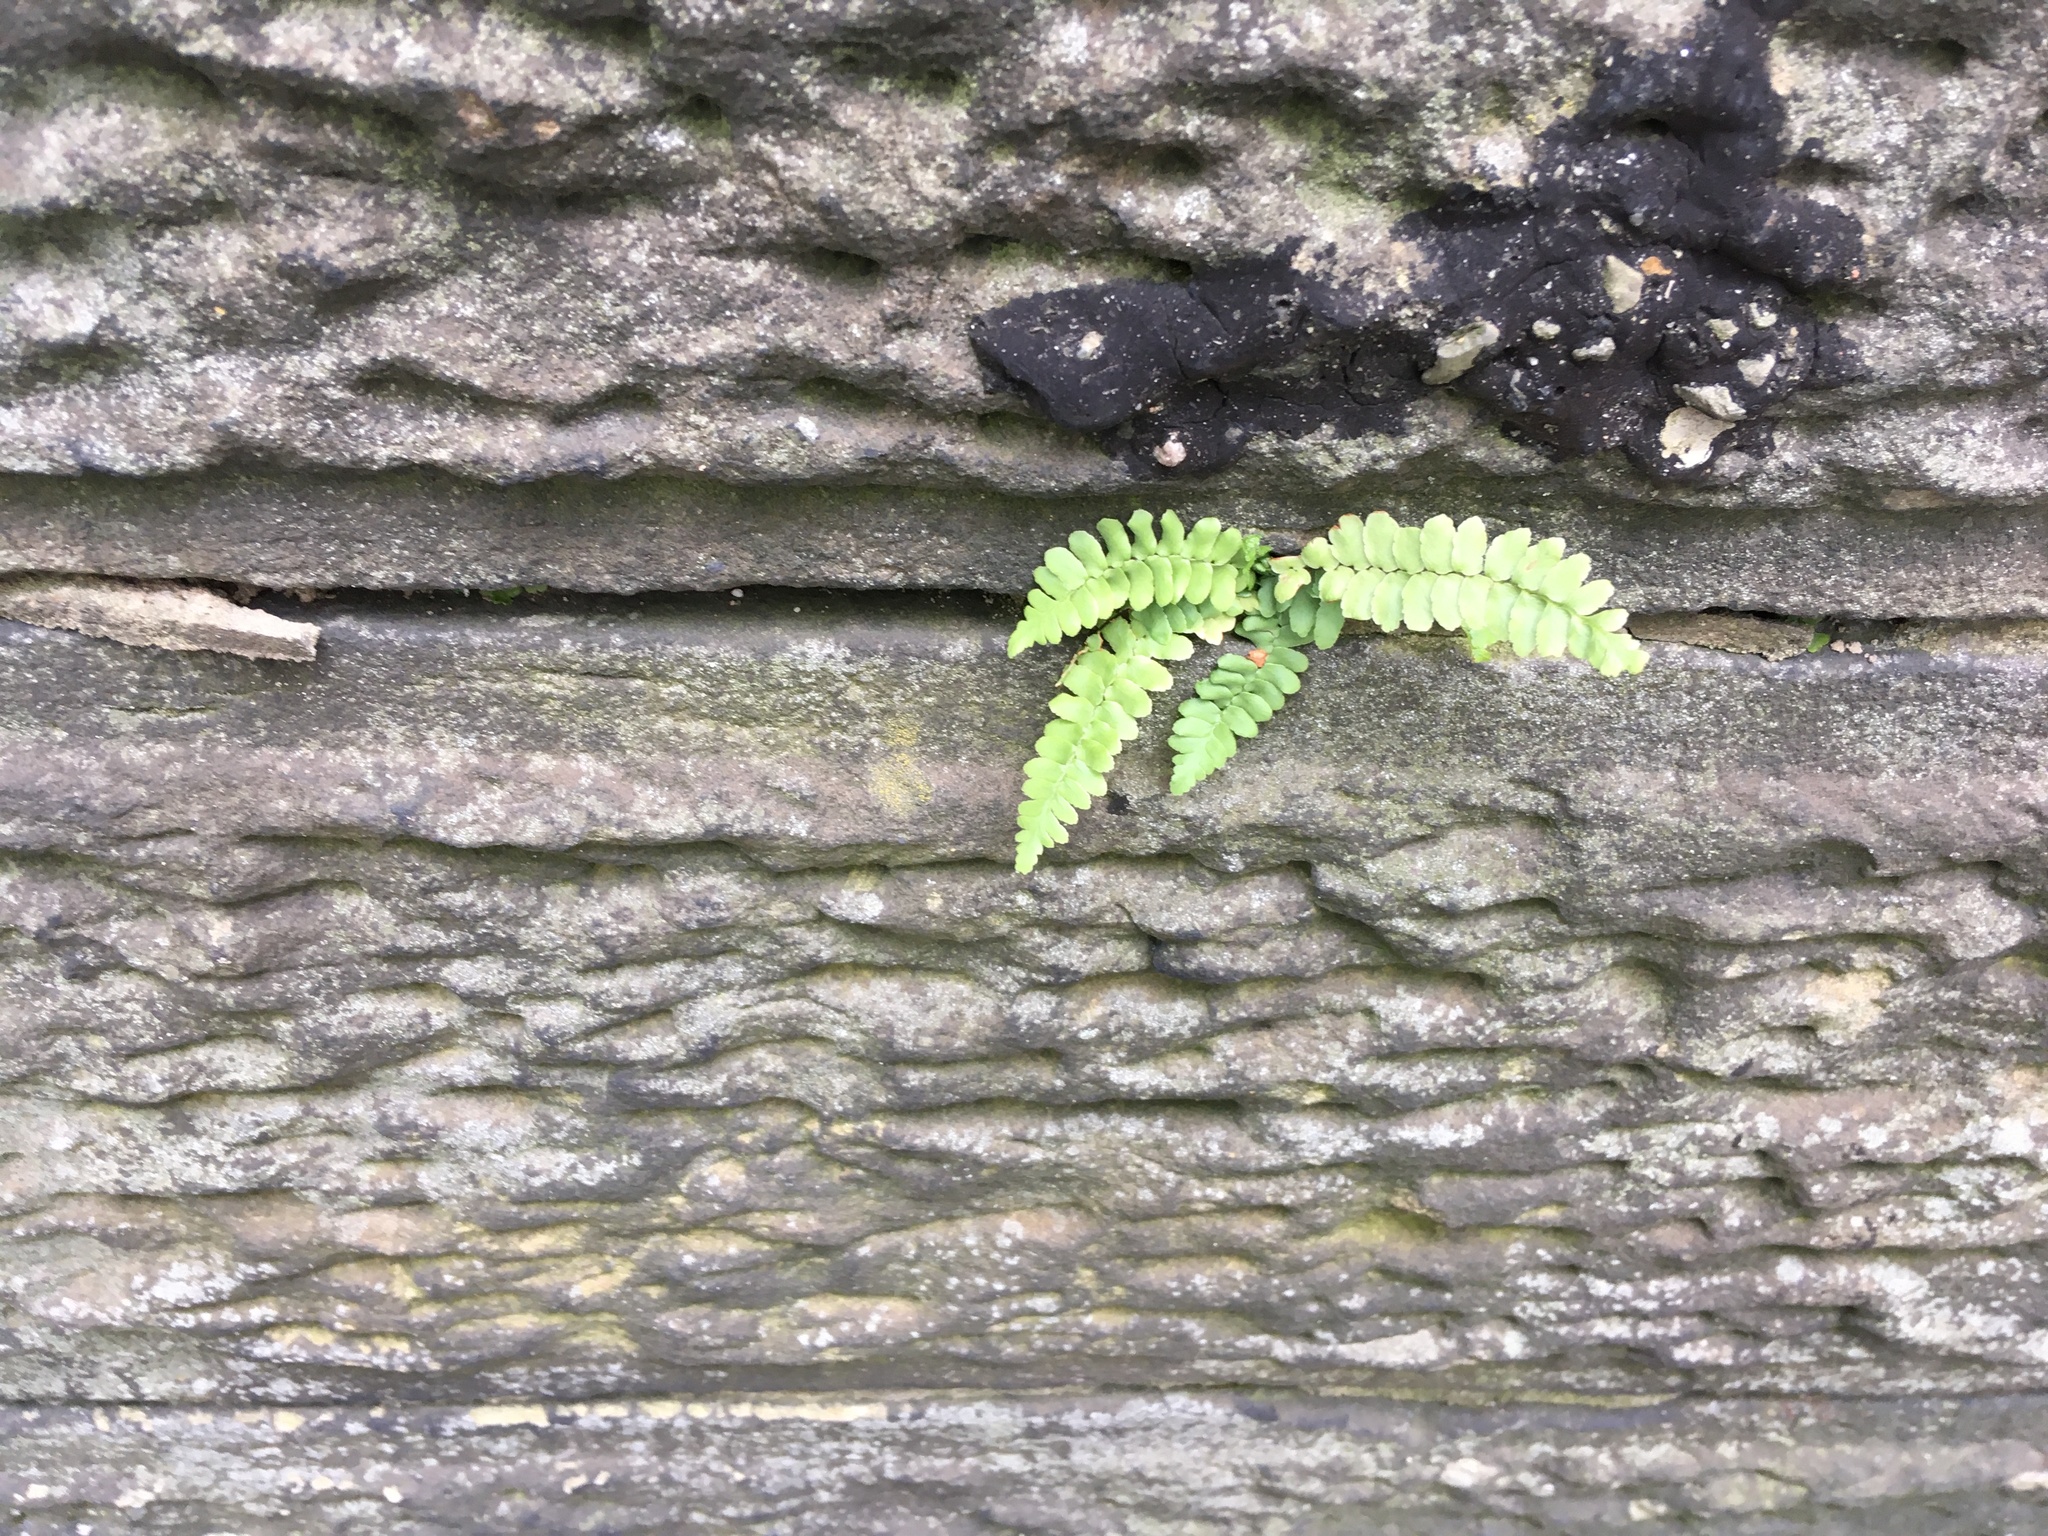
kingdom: Plantae
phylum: Tracheophyta
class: Polypodiopsida
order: Polypodiales
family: Aspleniaceae
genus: Asplenium
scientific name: Asplenium platyneuron
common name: Ebony spleenwort
